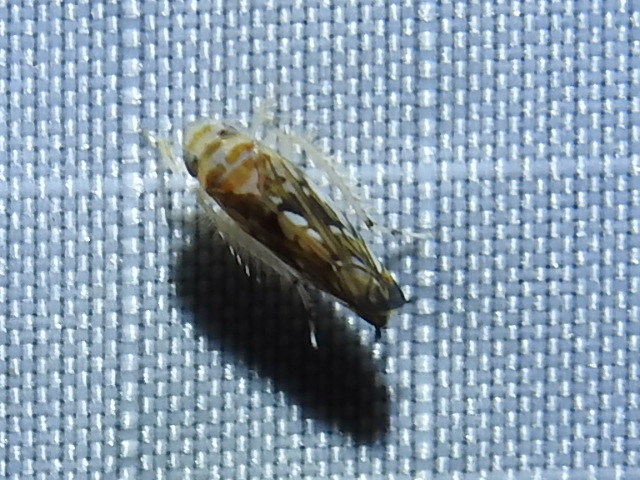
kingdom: Animalia
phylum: Arthropoda
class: Insecta
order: Hemiptera
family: Cicadellidae
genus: Scaphoideus
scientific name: Scaphoideus bifurcatus
